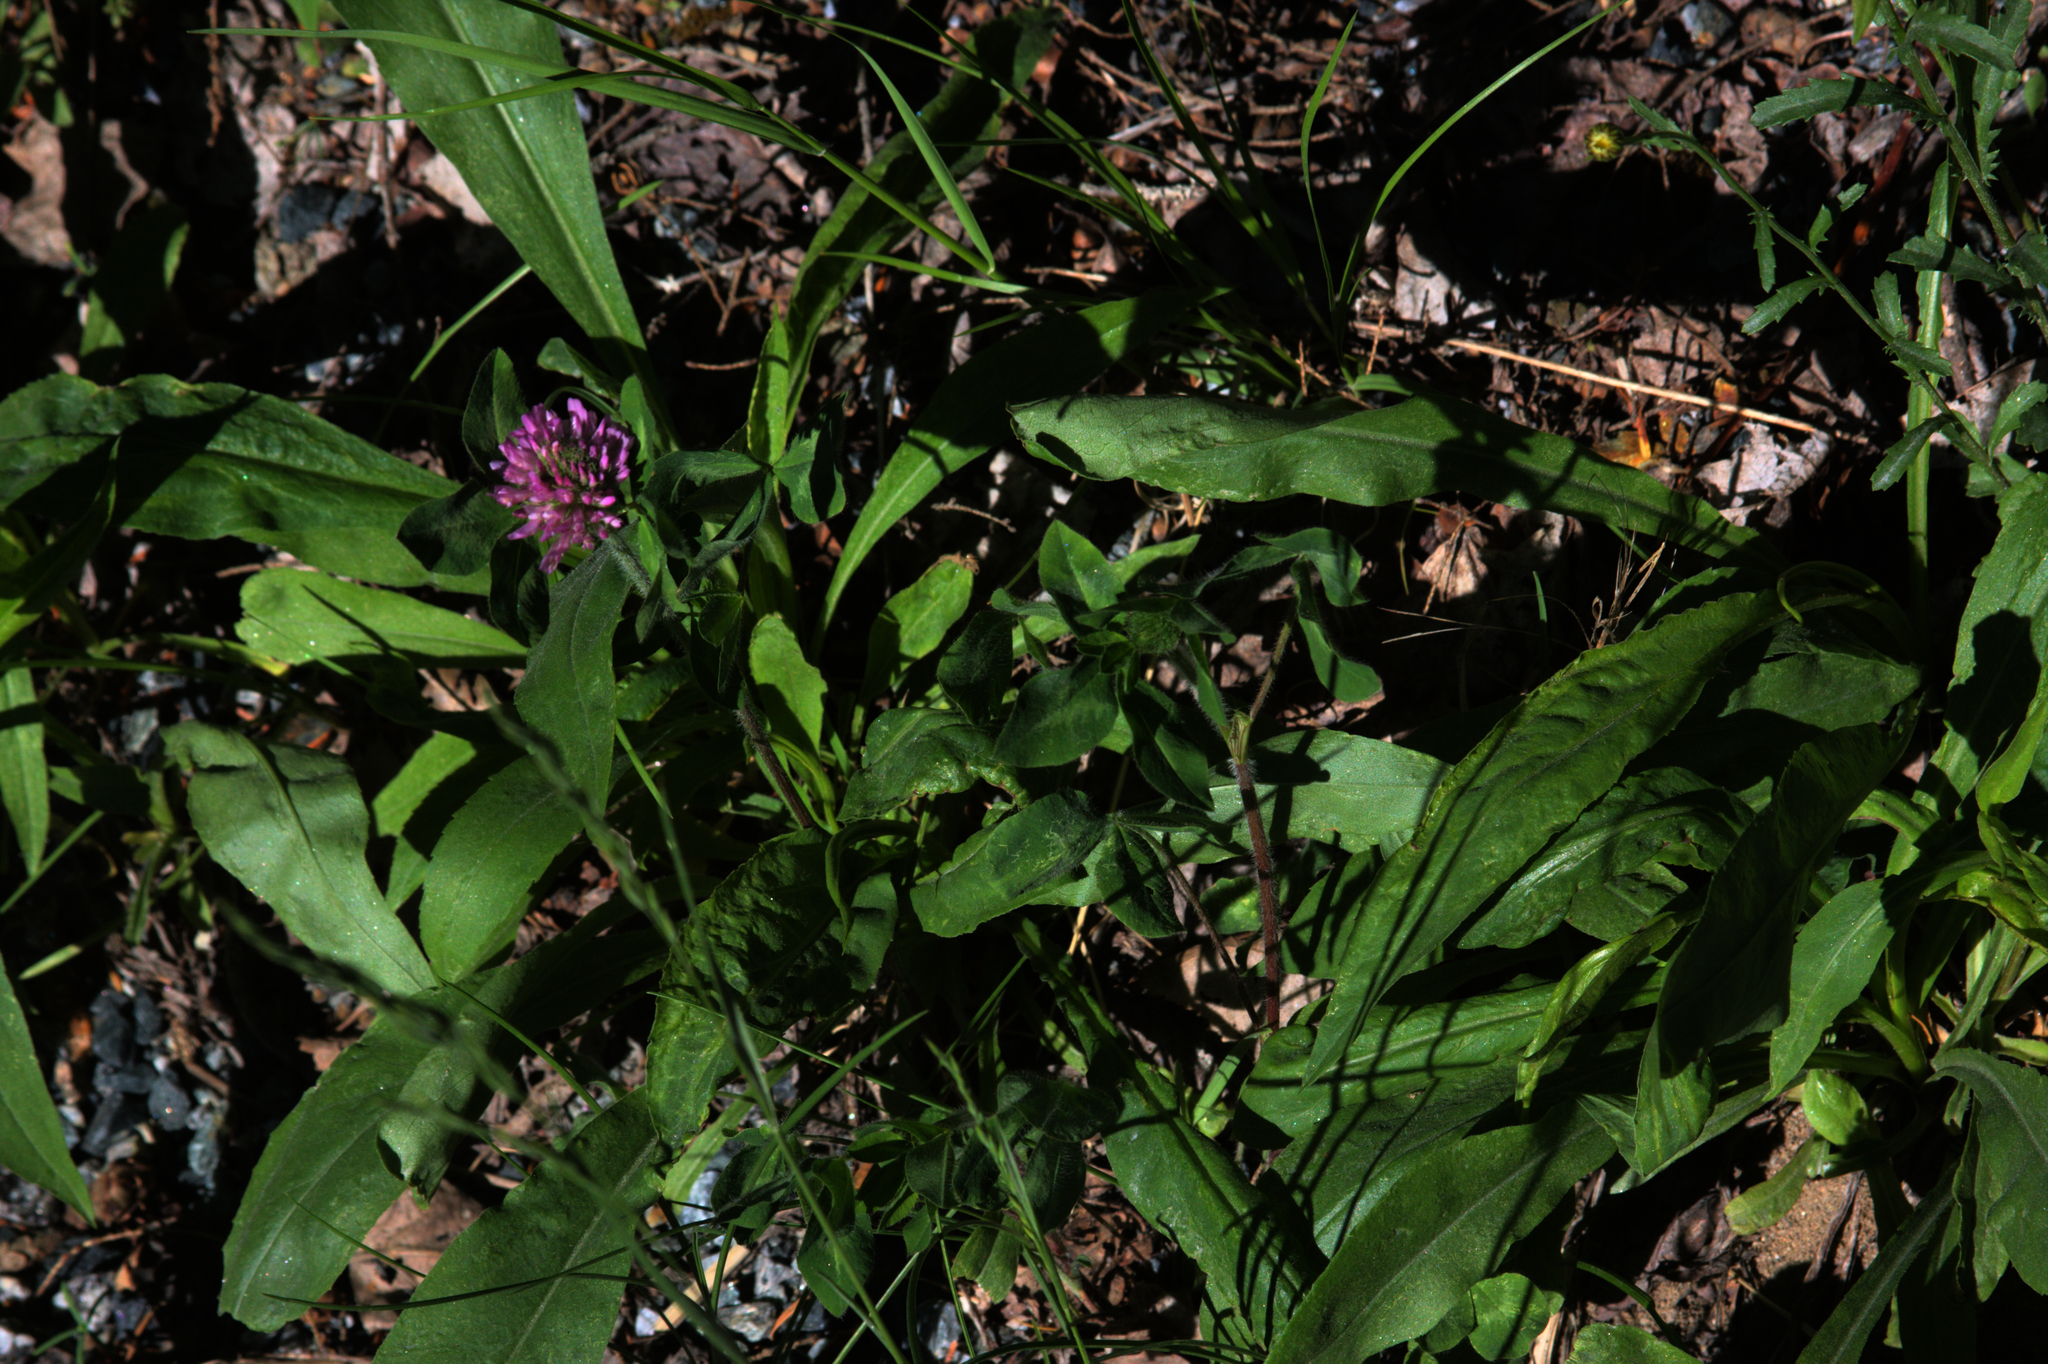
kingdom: Plantae
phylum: Tracheophyta
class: Magnoliopsida
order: Fabales
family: Fabaceae
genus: Trifolium
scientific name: Trifolium pratense
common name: Red clover
